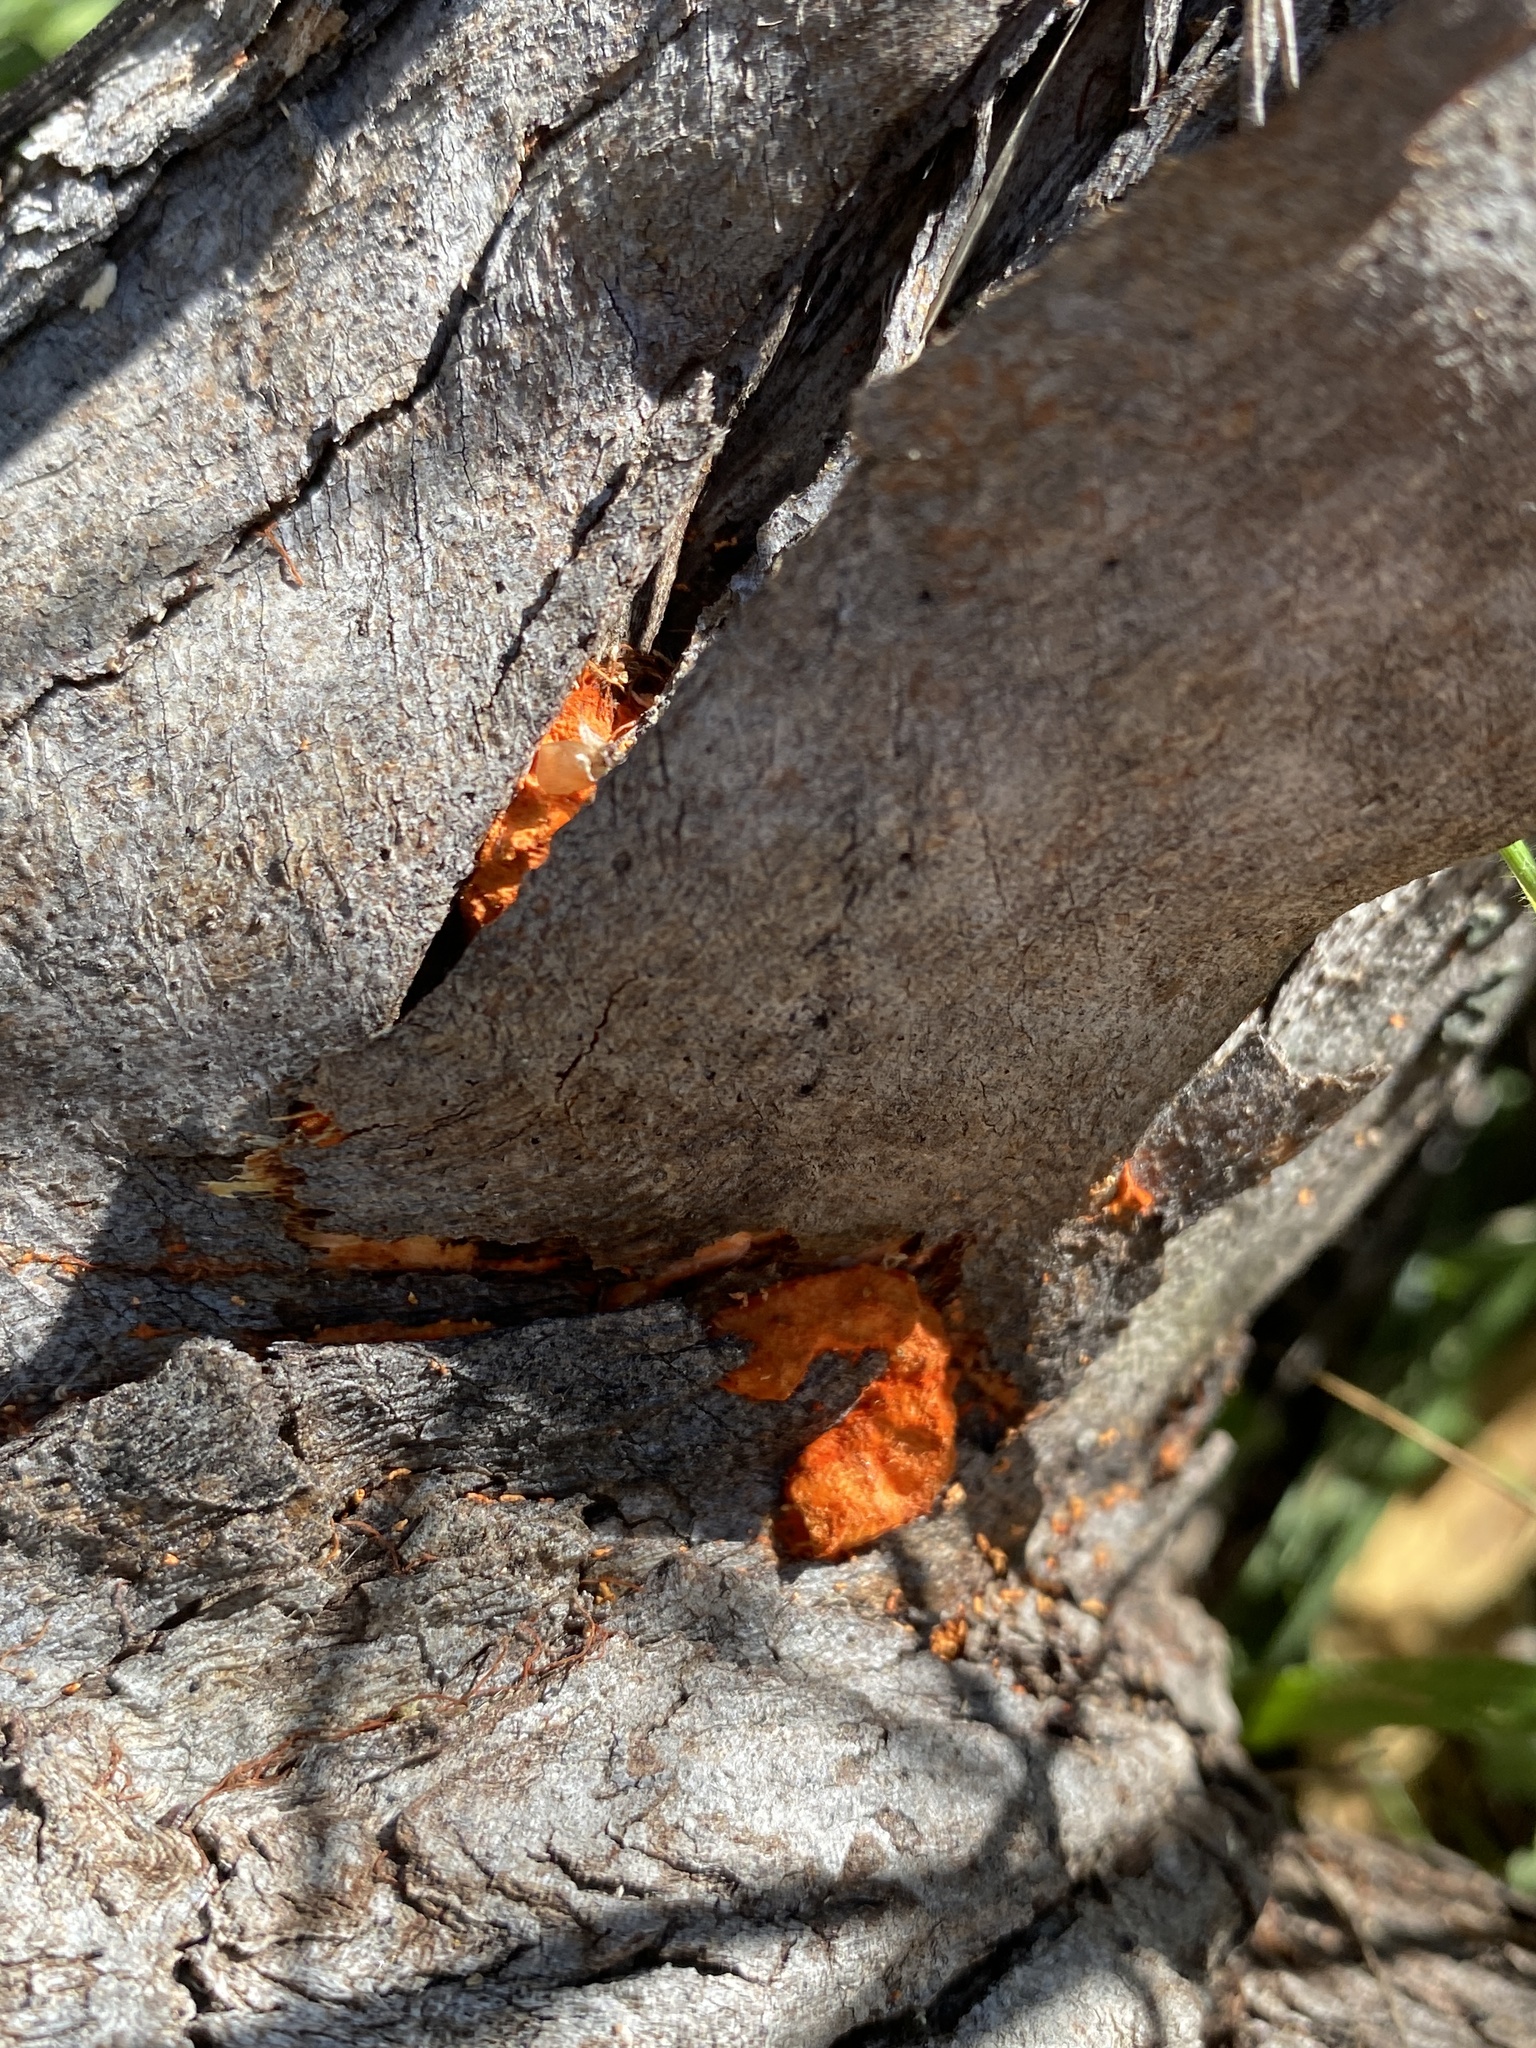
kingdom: Fungi
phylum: Basidiomycota
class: Agaricomycetes
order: Polyporales
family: Polyporaceae
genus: Trametes
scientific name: Trametes coccinea
